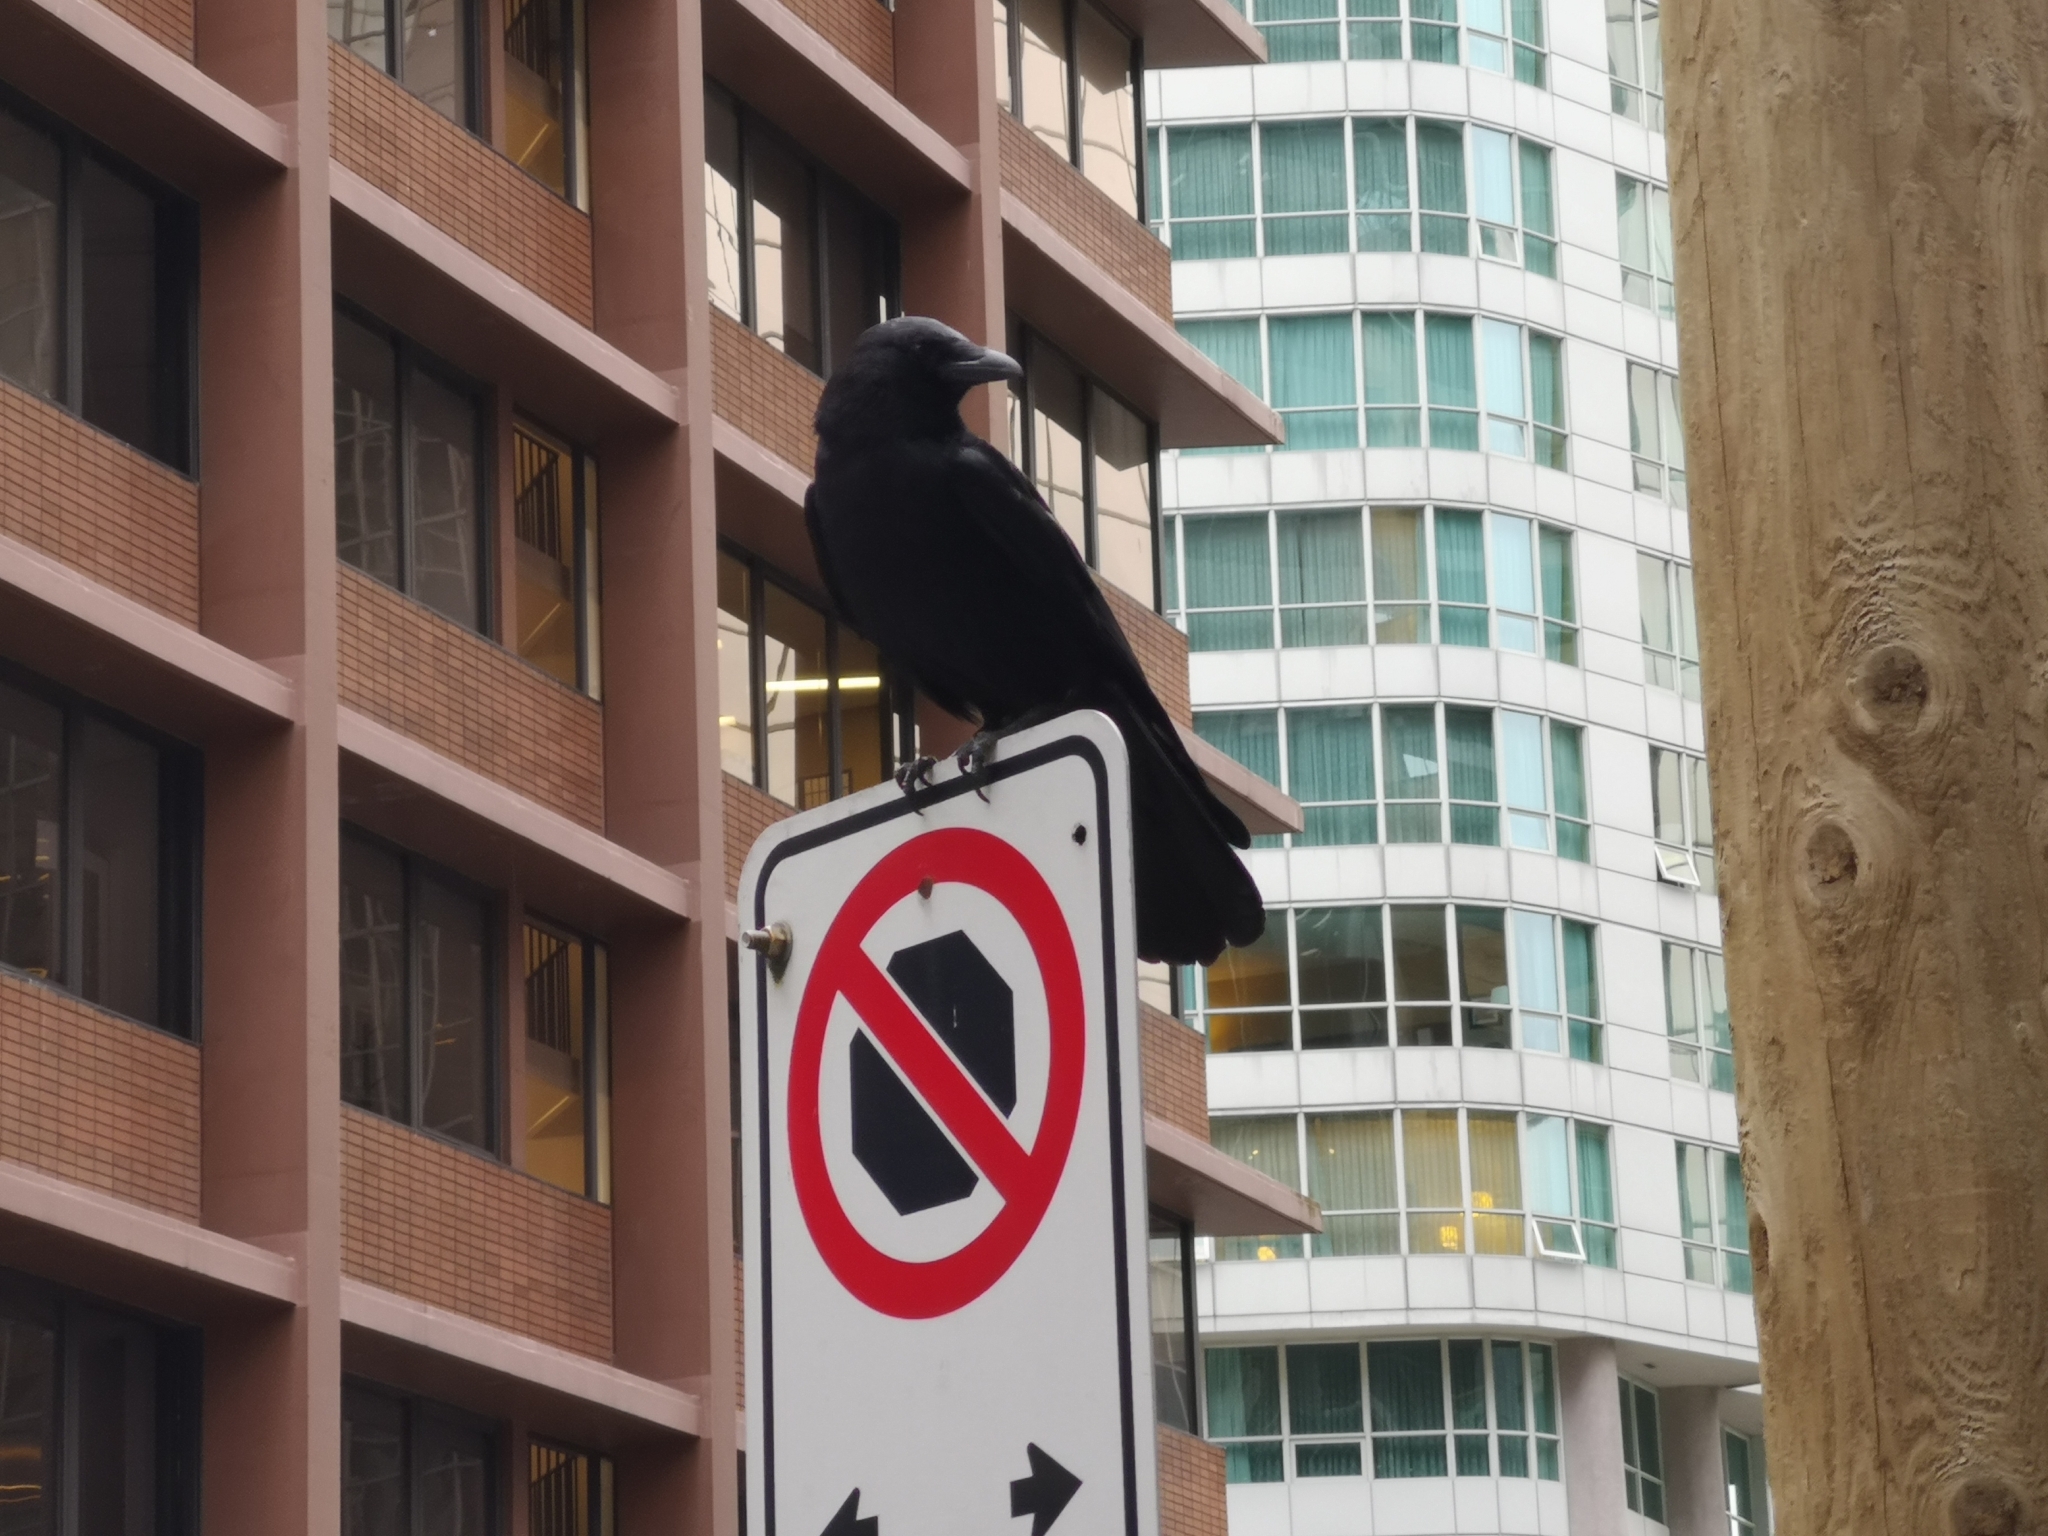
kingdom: Animalia
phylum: Chordata
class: Aves
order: Passeriformes
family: Corvidae
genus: Corvus
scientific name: Corvus brachyrhynchos
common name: American crow
